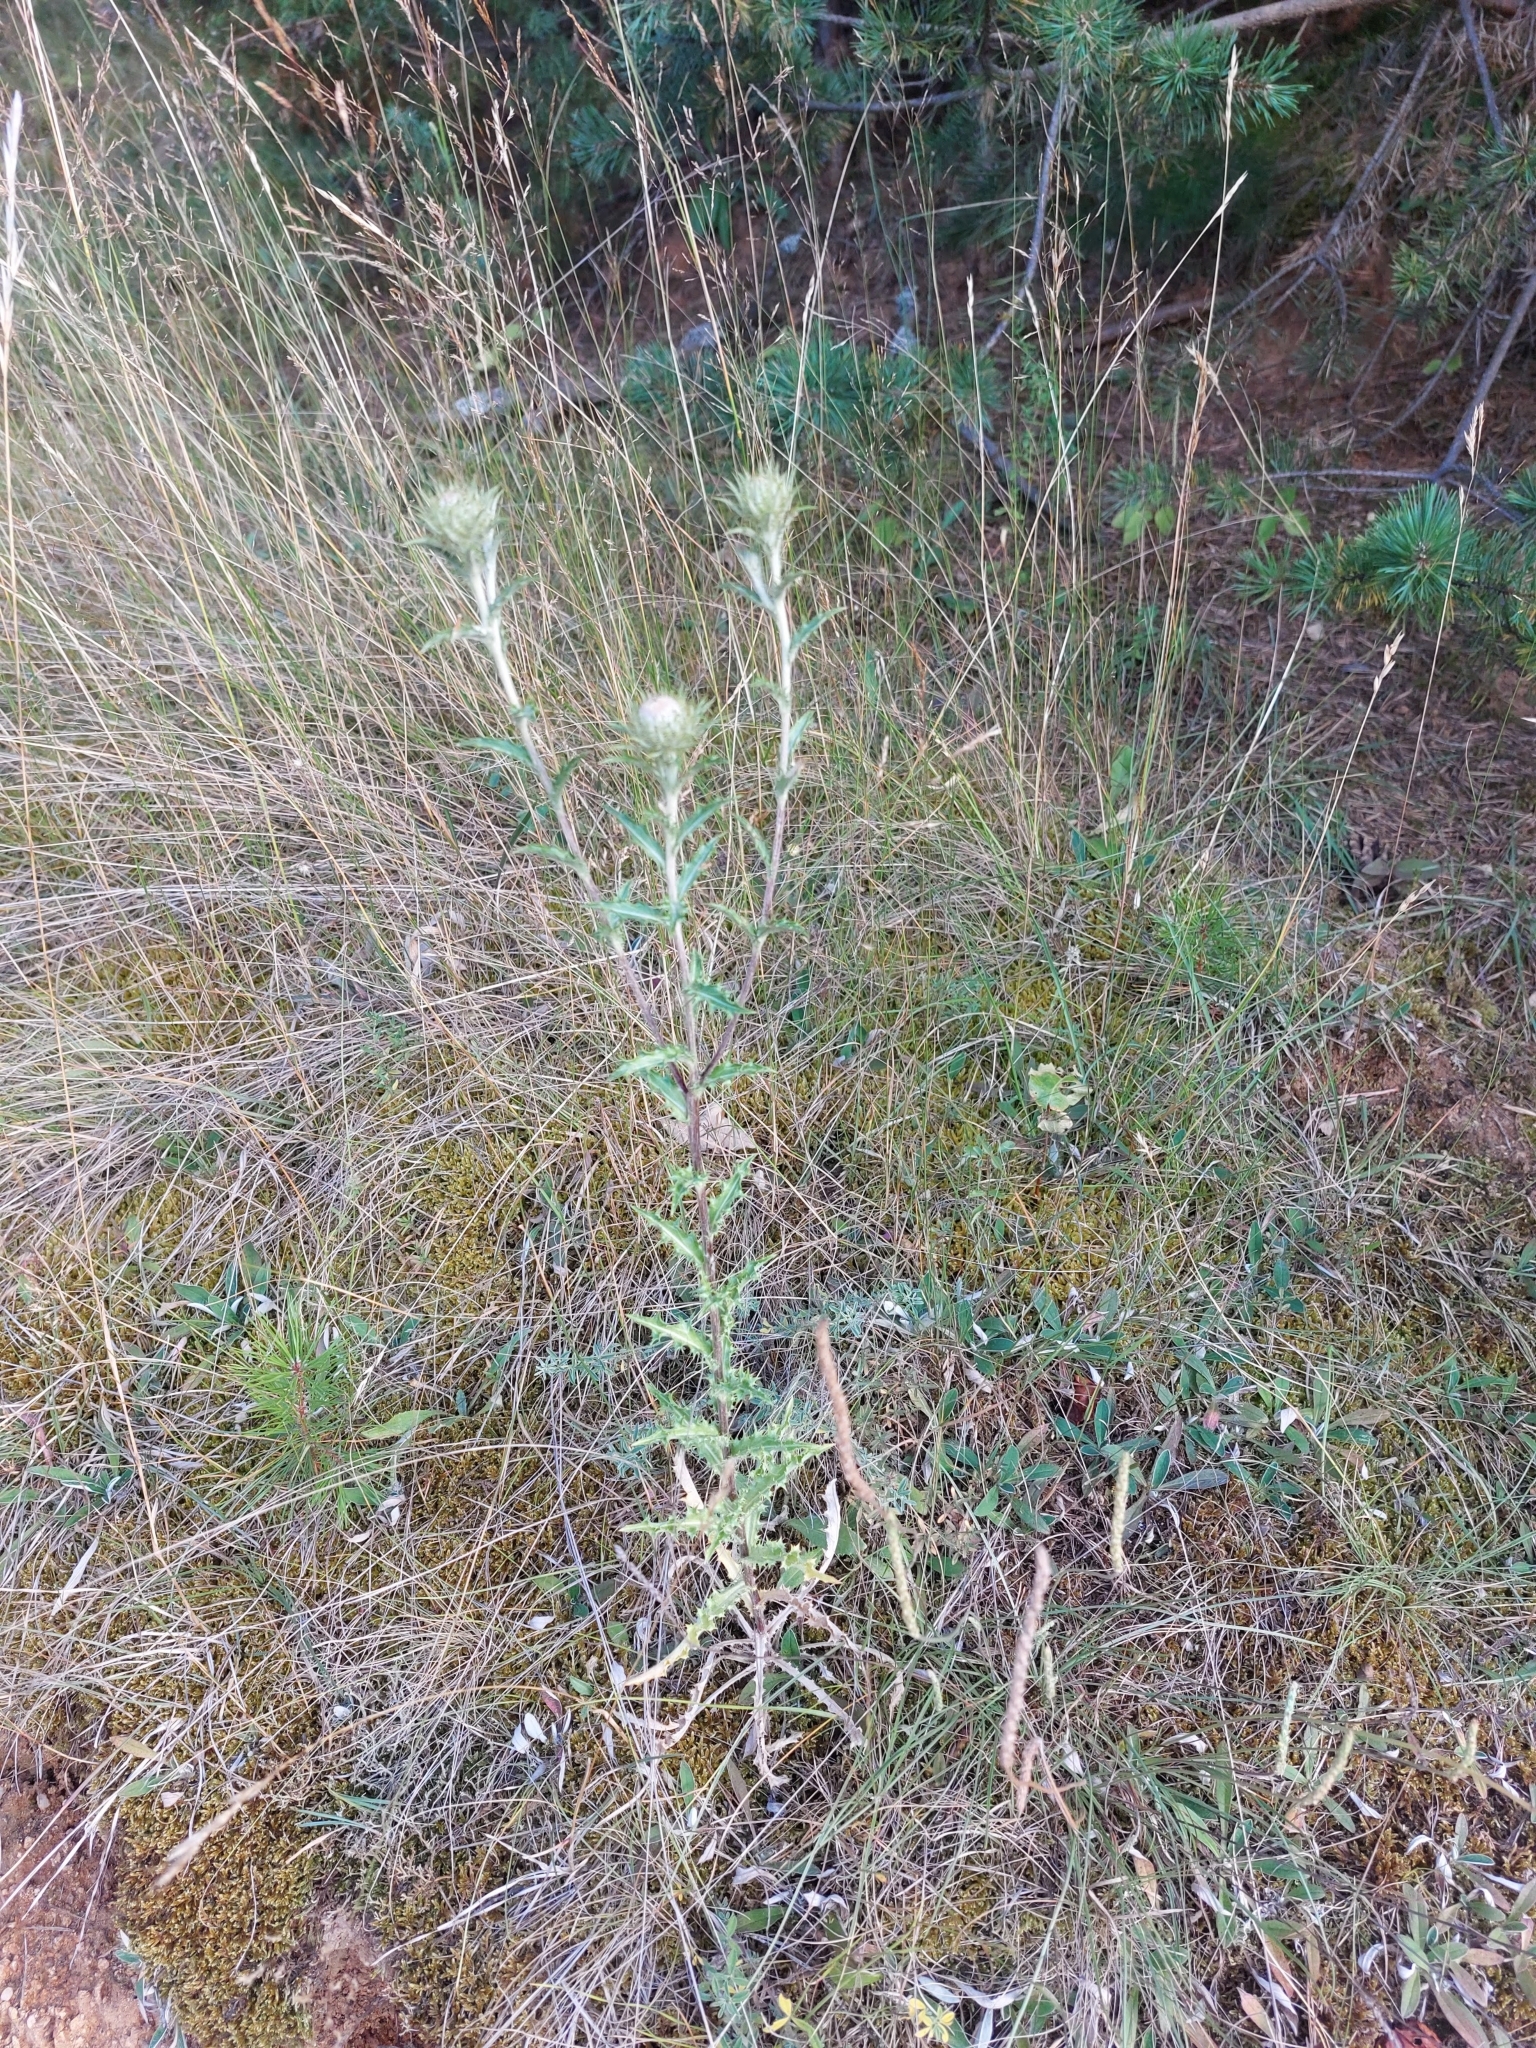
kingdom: Plantae
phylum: Tracheophyta
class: Magnoliopsida
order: Asterales
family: Asteraceae
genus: Carlina
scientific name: Carlina vulgaris
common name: Carline thistle
